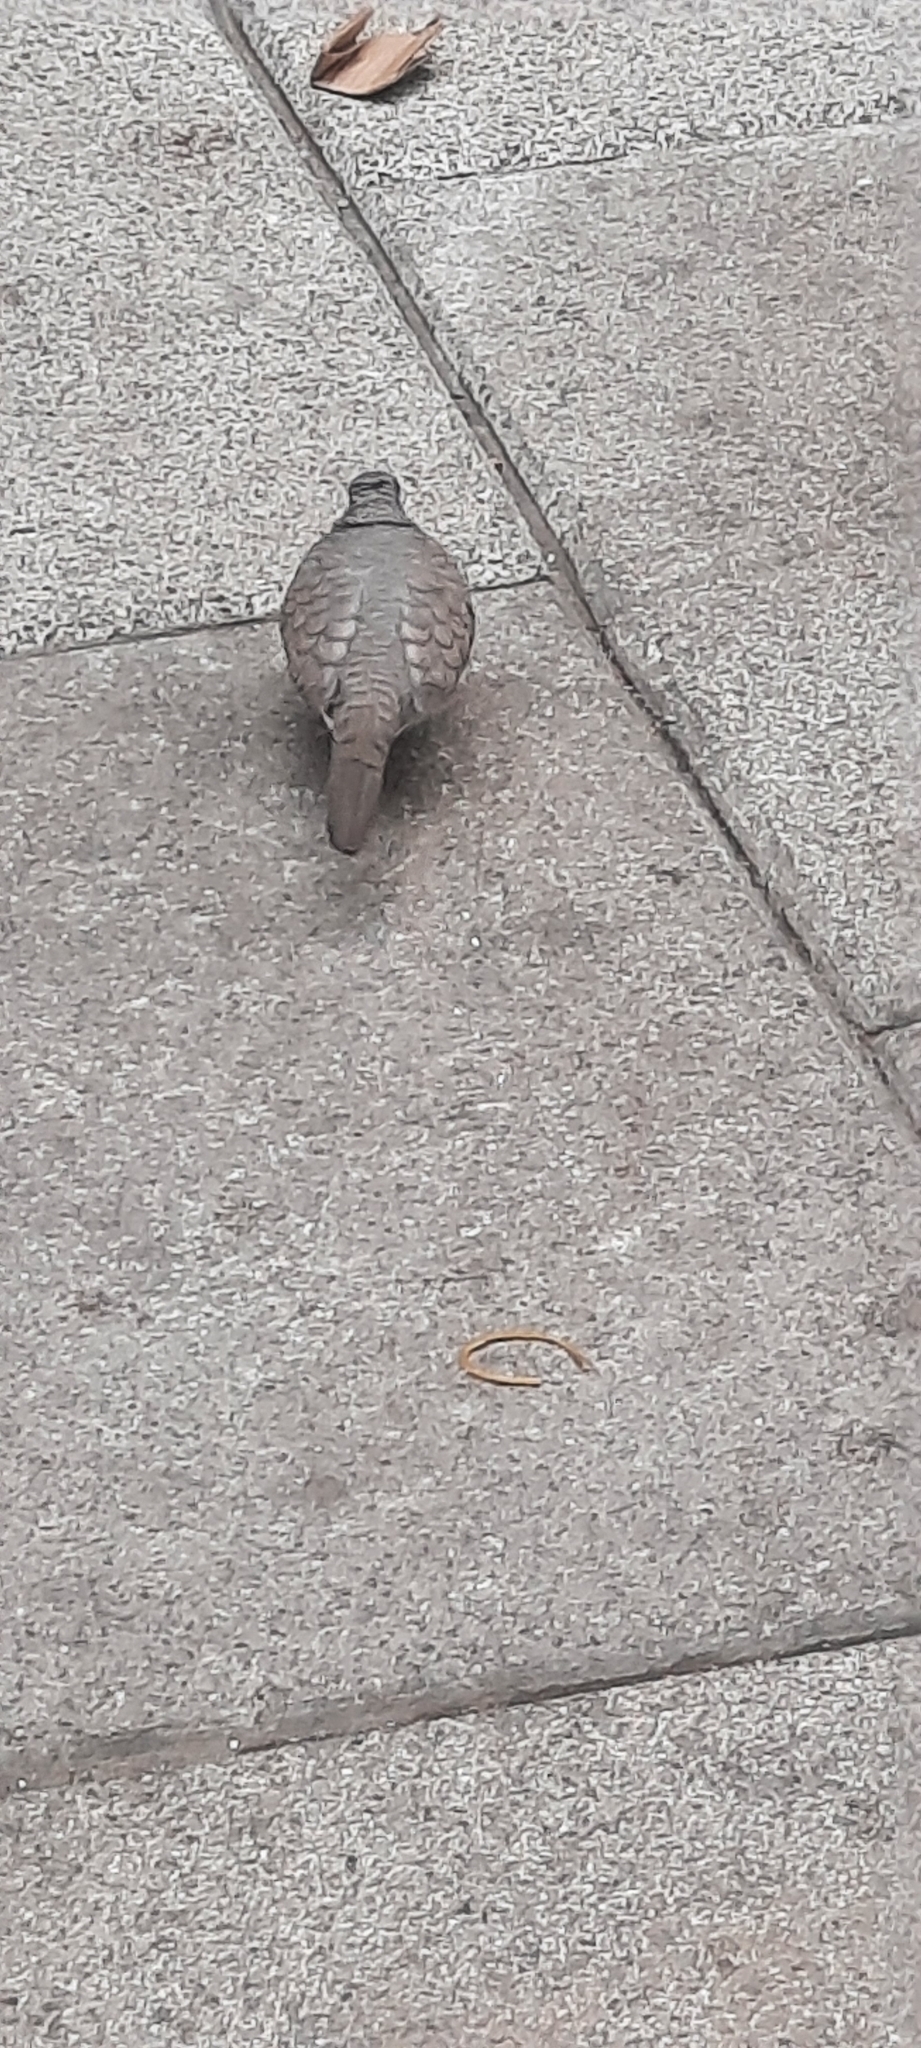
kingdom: Animalia
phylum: Chordata
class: Aves
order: Columbiformes
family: Columbidae
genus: Columbina
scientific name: Columbina inca
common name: Inca dove
